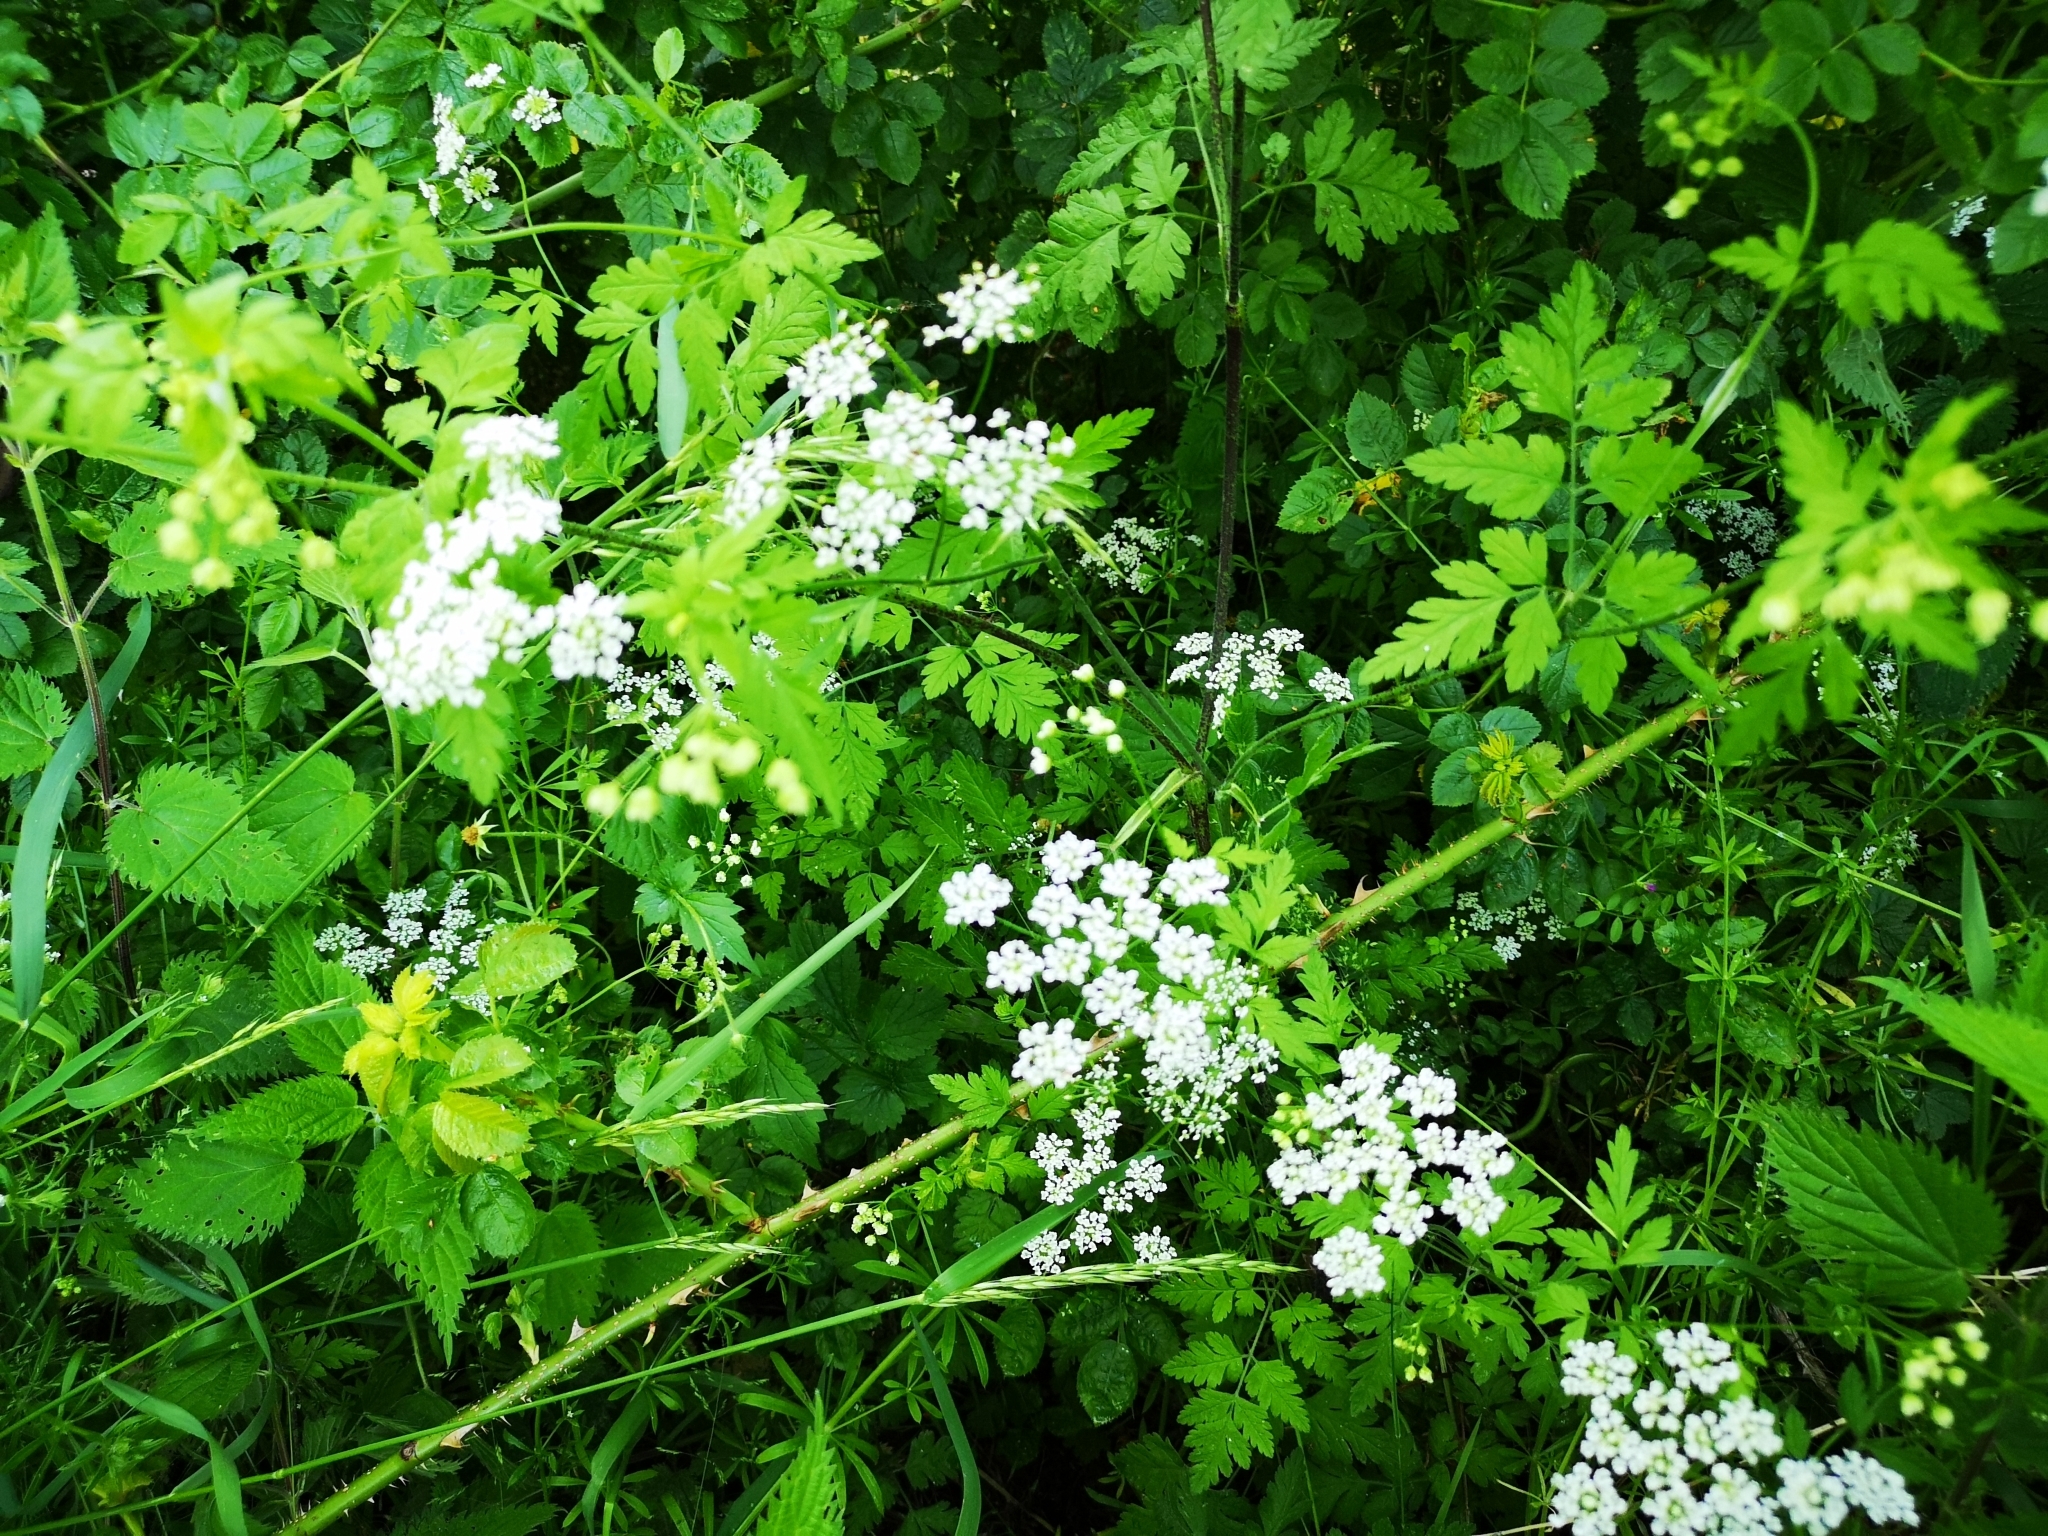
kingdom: Plantae
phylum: Tracheophyta
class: Magnoliopsida
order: Apiales
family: Apiaceae
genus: Chaerophyllum
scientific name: Chaerophyllum temulum
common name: Rough chervil
